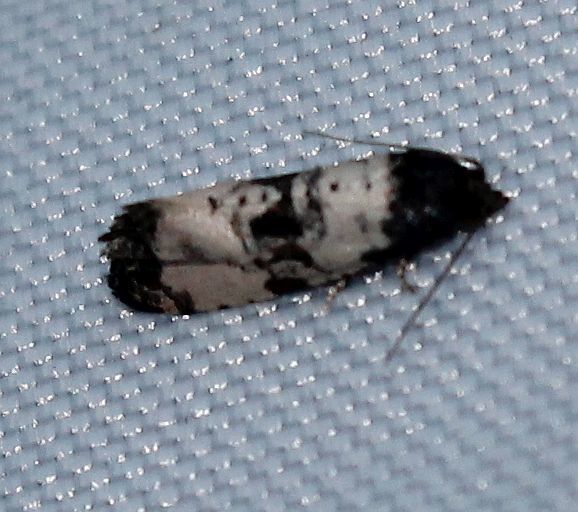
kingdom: Animalia
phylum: Arthropoda
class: Insecta
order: Lepidoptera
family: Tortricidae
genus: Cochylis
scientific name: Cochylis atricapitana
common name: Tortricid moth
